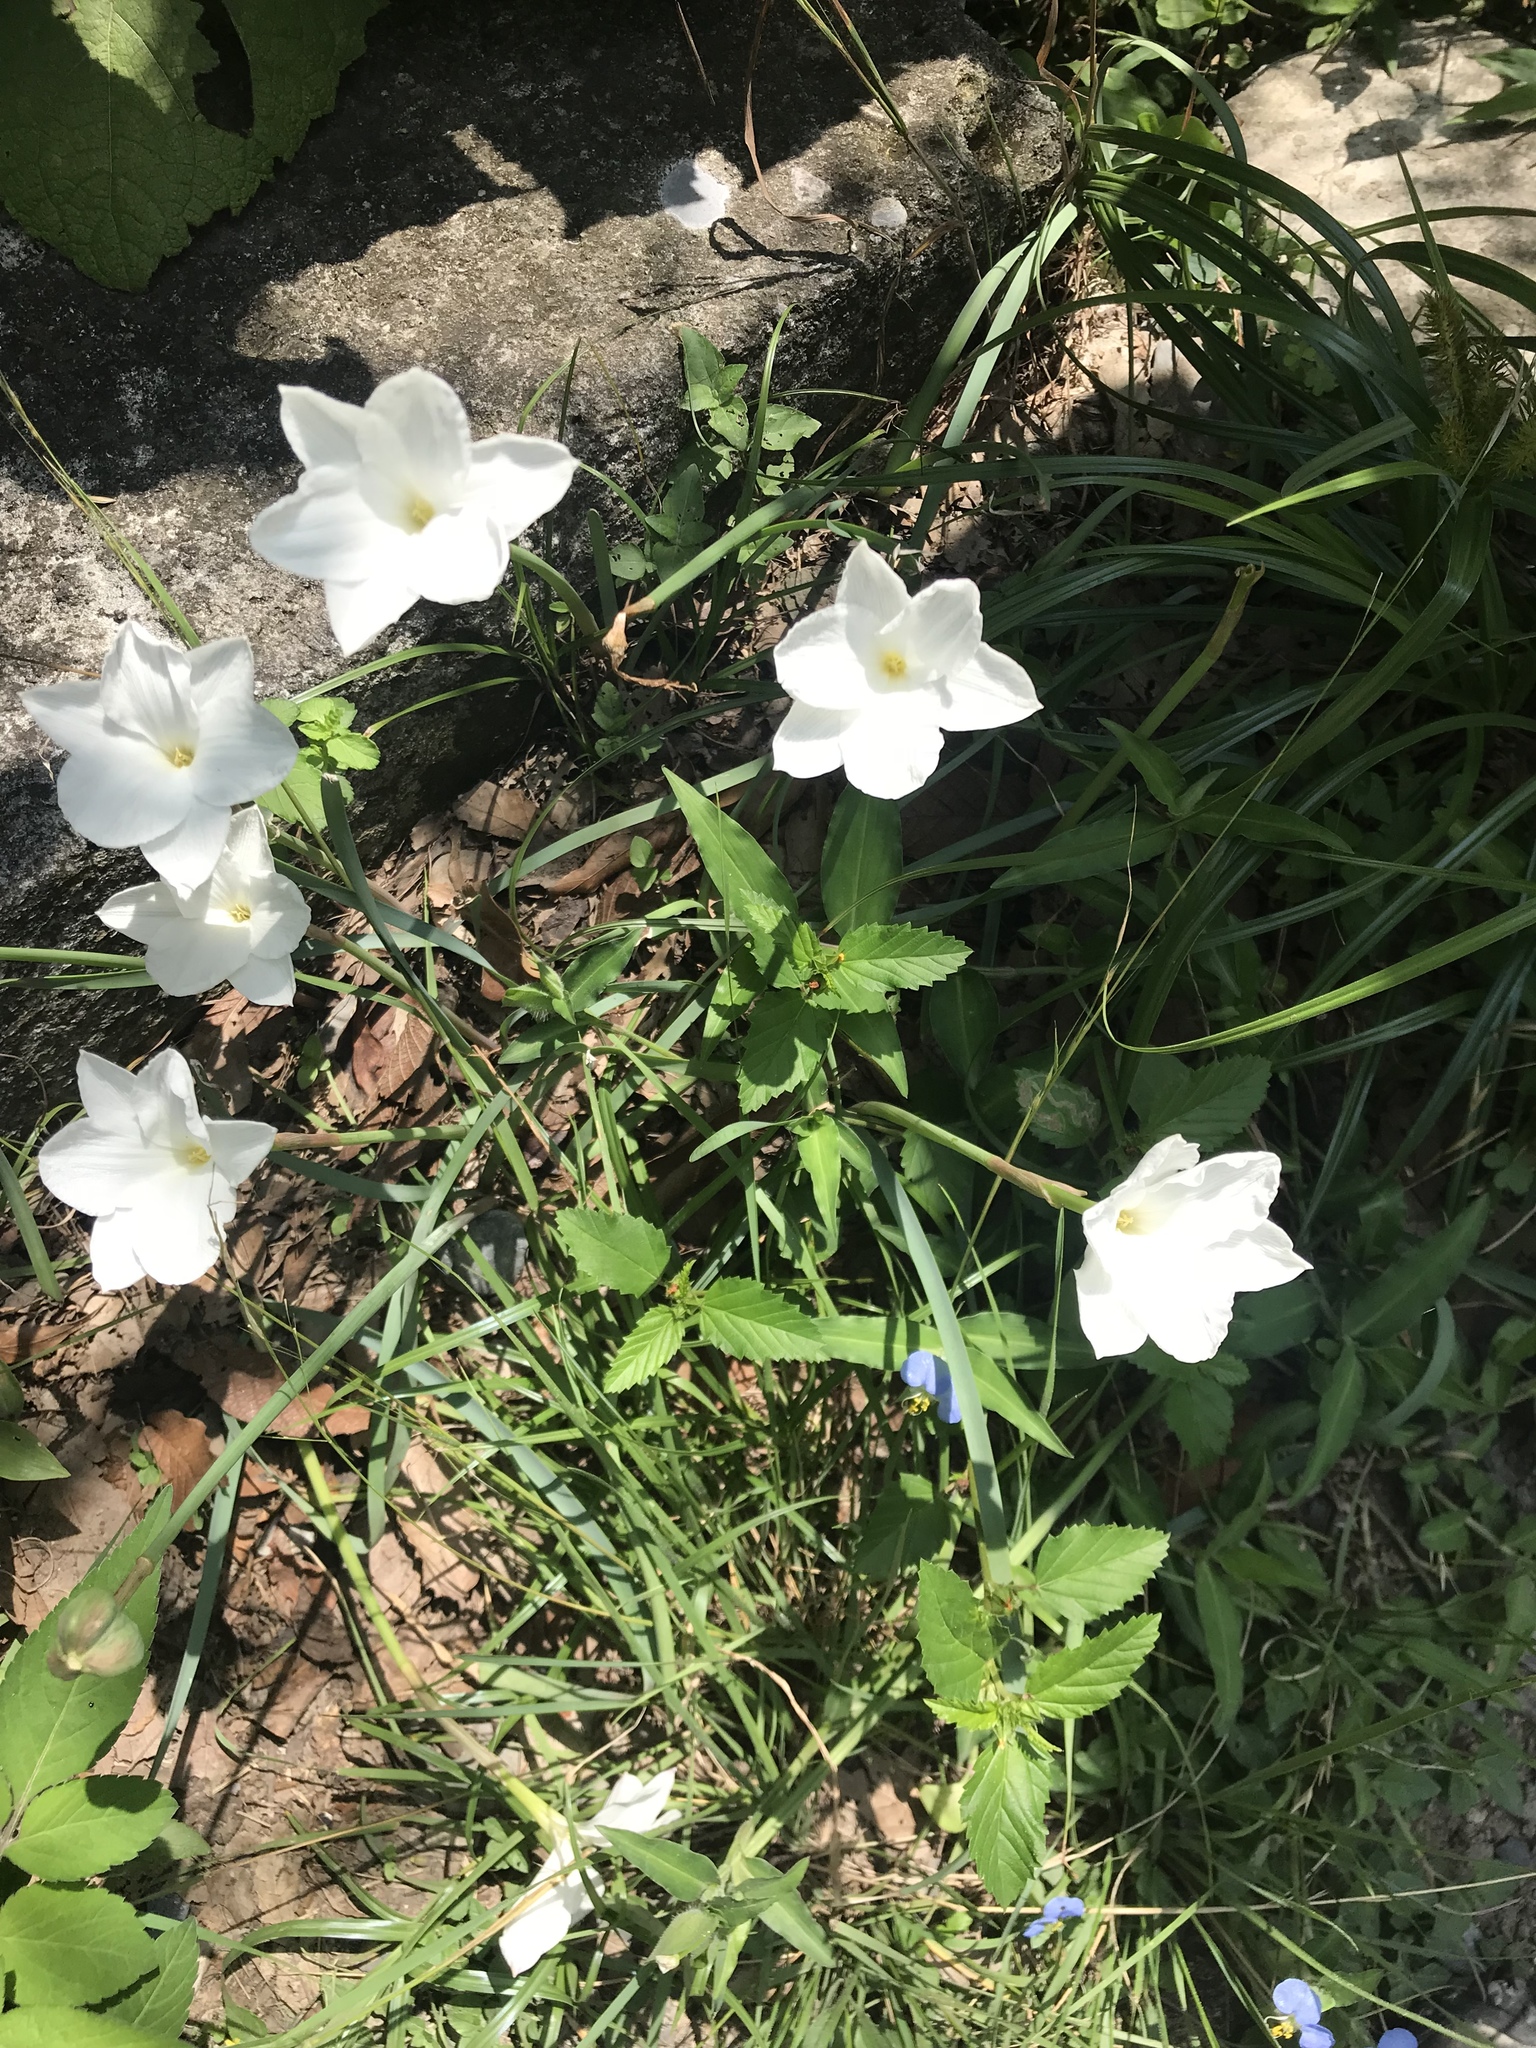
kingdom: Plantae
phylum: Tracheophyta
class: Liliopsida
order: Asparagales
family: Amaryllidaceae
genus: Zephyranthes
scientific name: Zephyranthes drummondii
